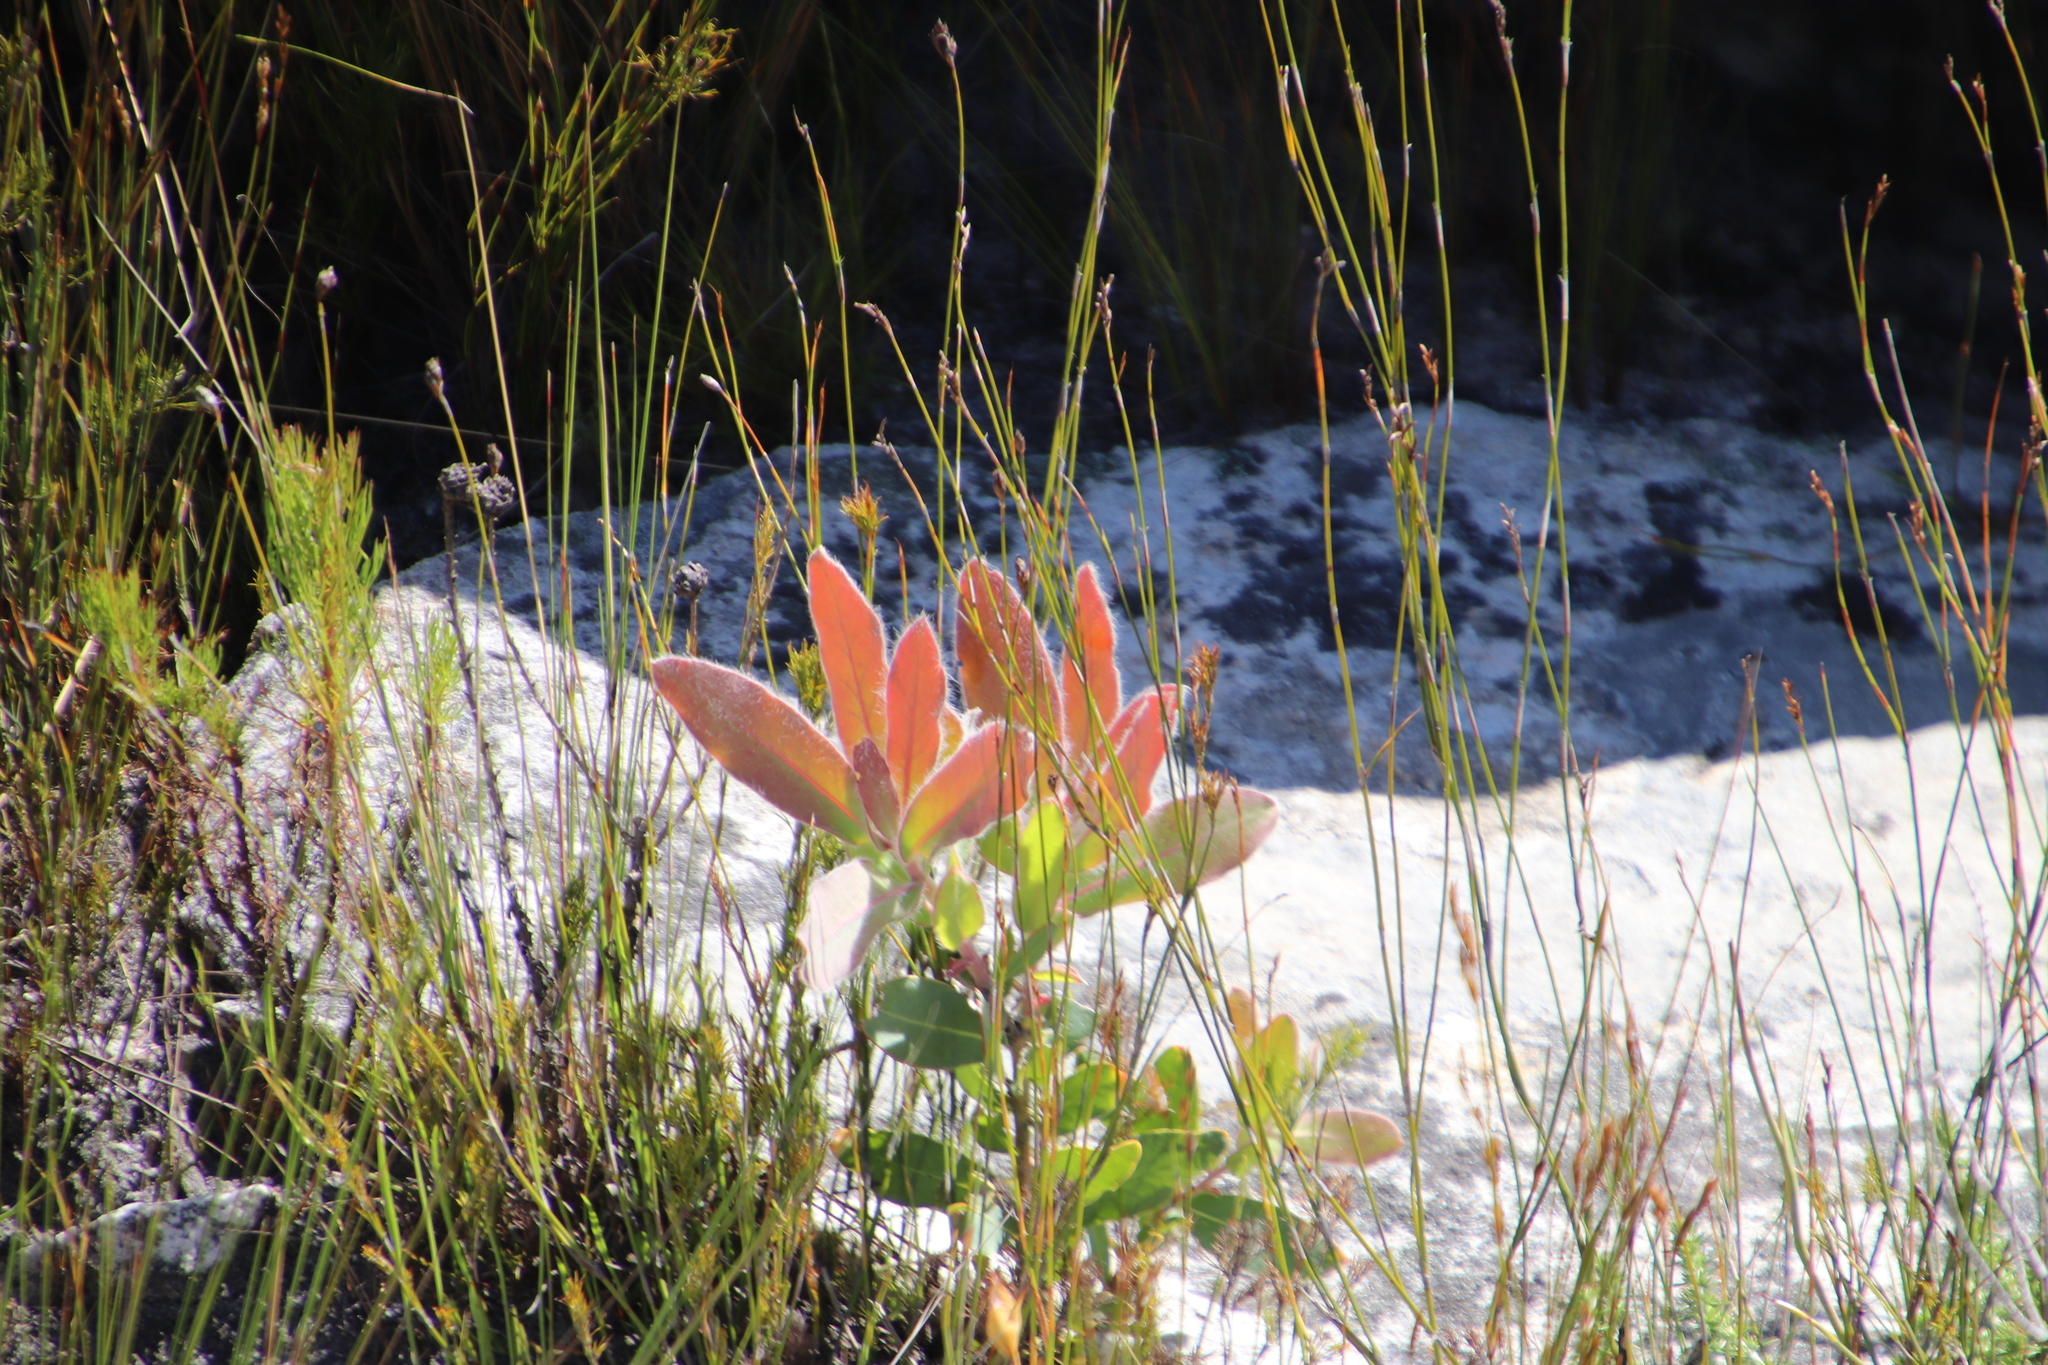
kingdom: Plantae
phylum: Tracheophyta
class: Magnoliopsida
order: Proteales
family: Proteaceae
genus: Protea
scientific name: Protea magnifica
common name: Bearded sugarbush
